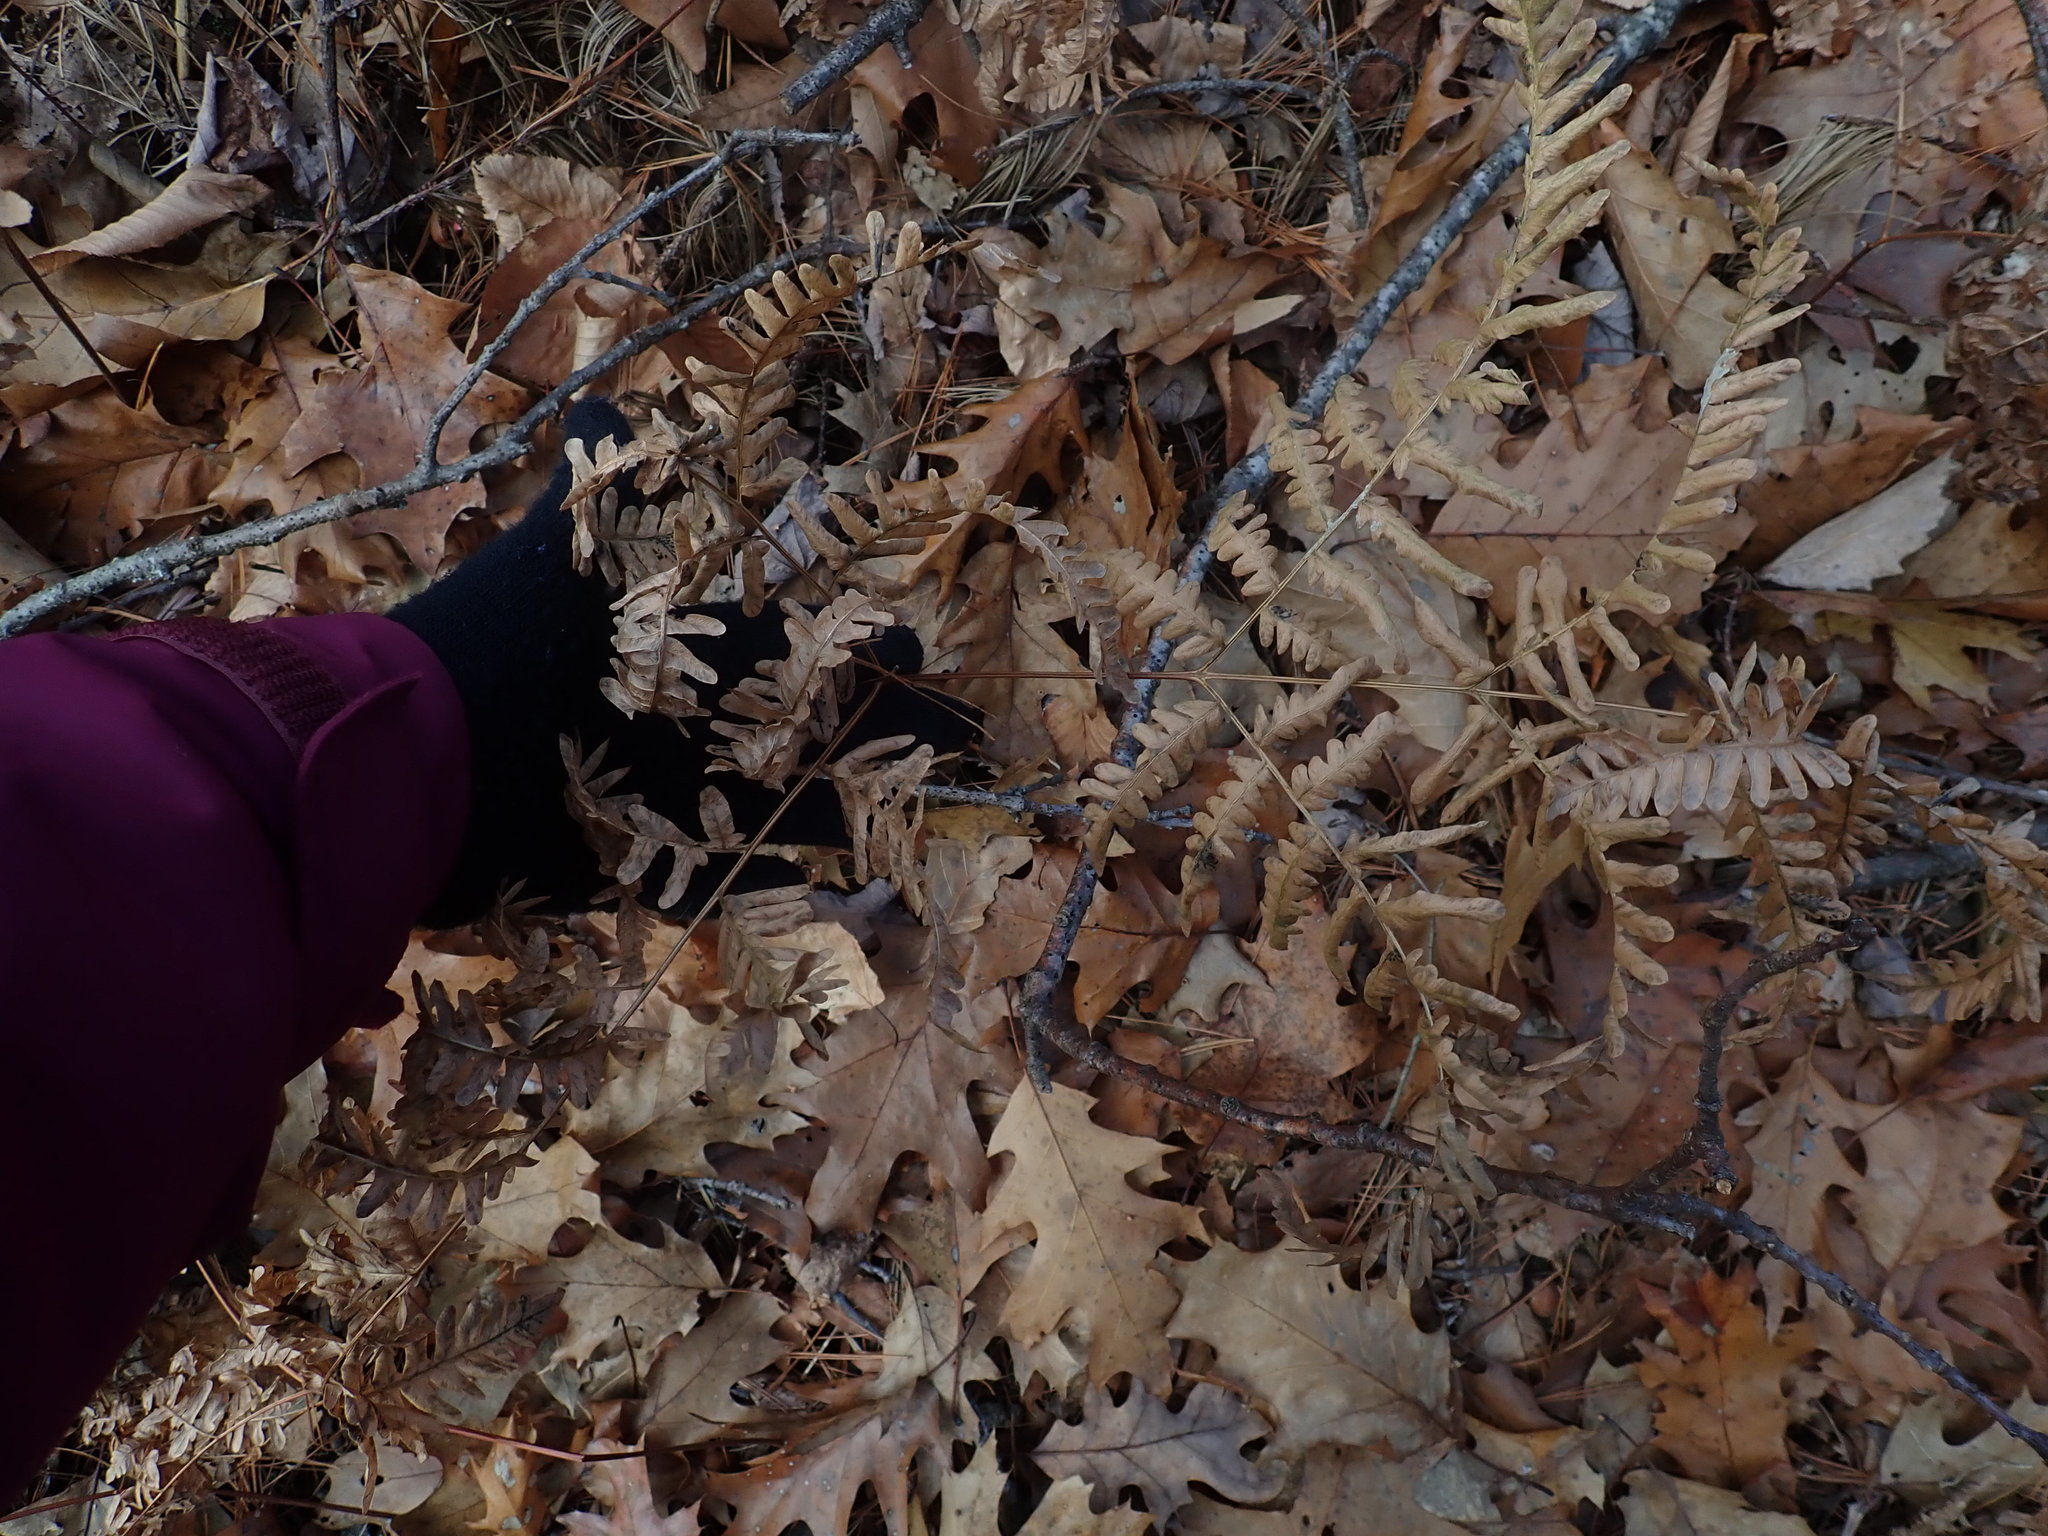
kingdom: Plantae
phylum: Tracheophyta
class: Polypodiopsida
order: Polypodiales
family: Dennstaedtiaceae
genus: Pteridium
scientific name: Pteridium aquilinum
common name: Bracken
